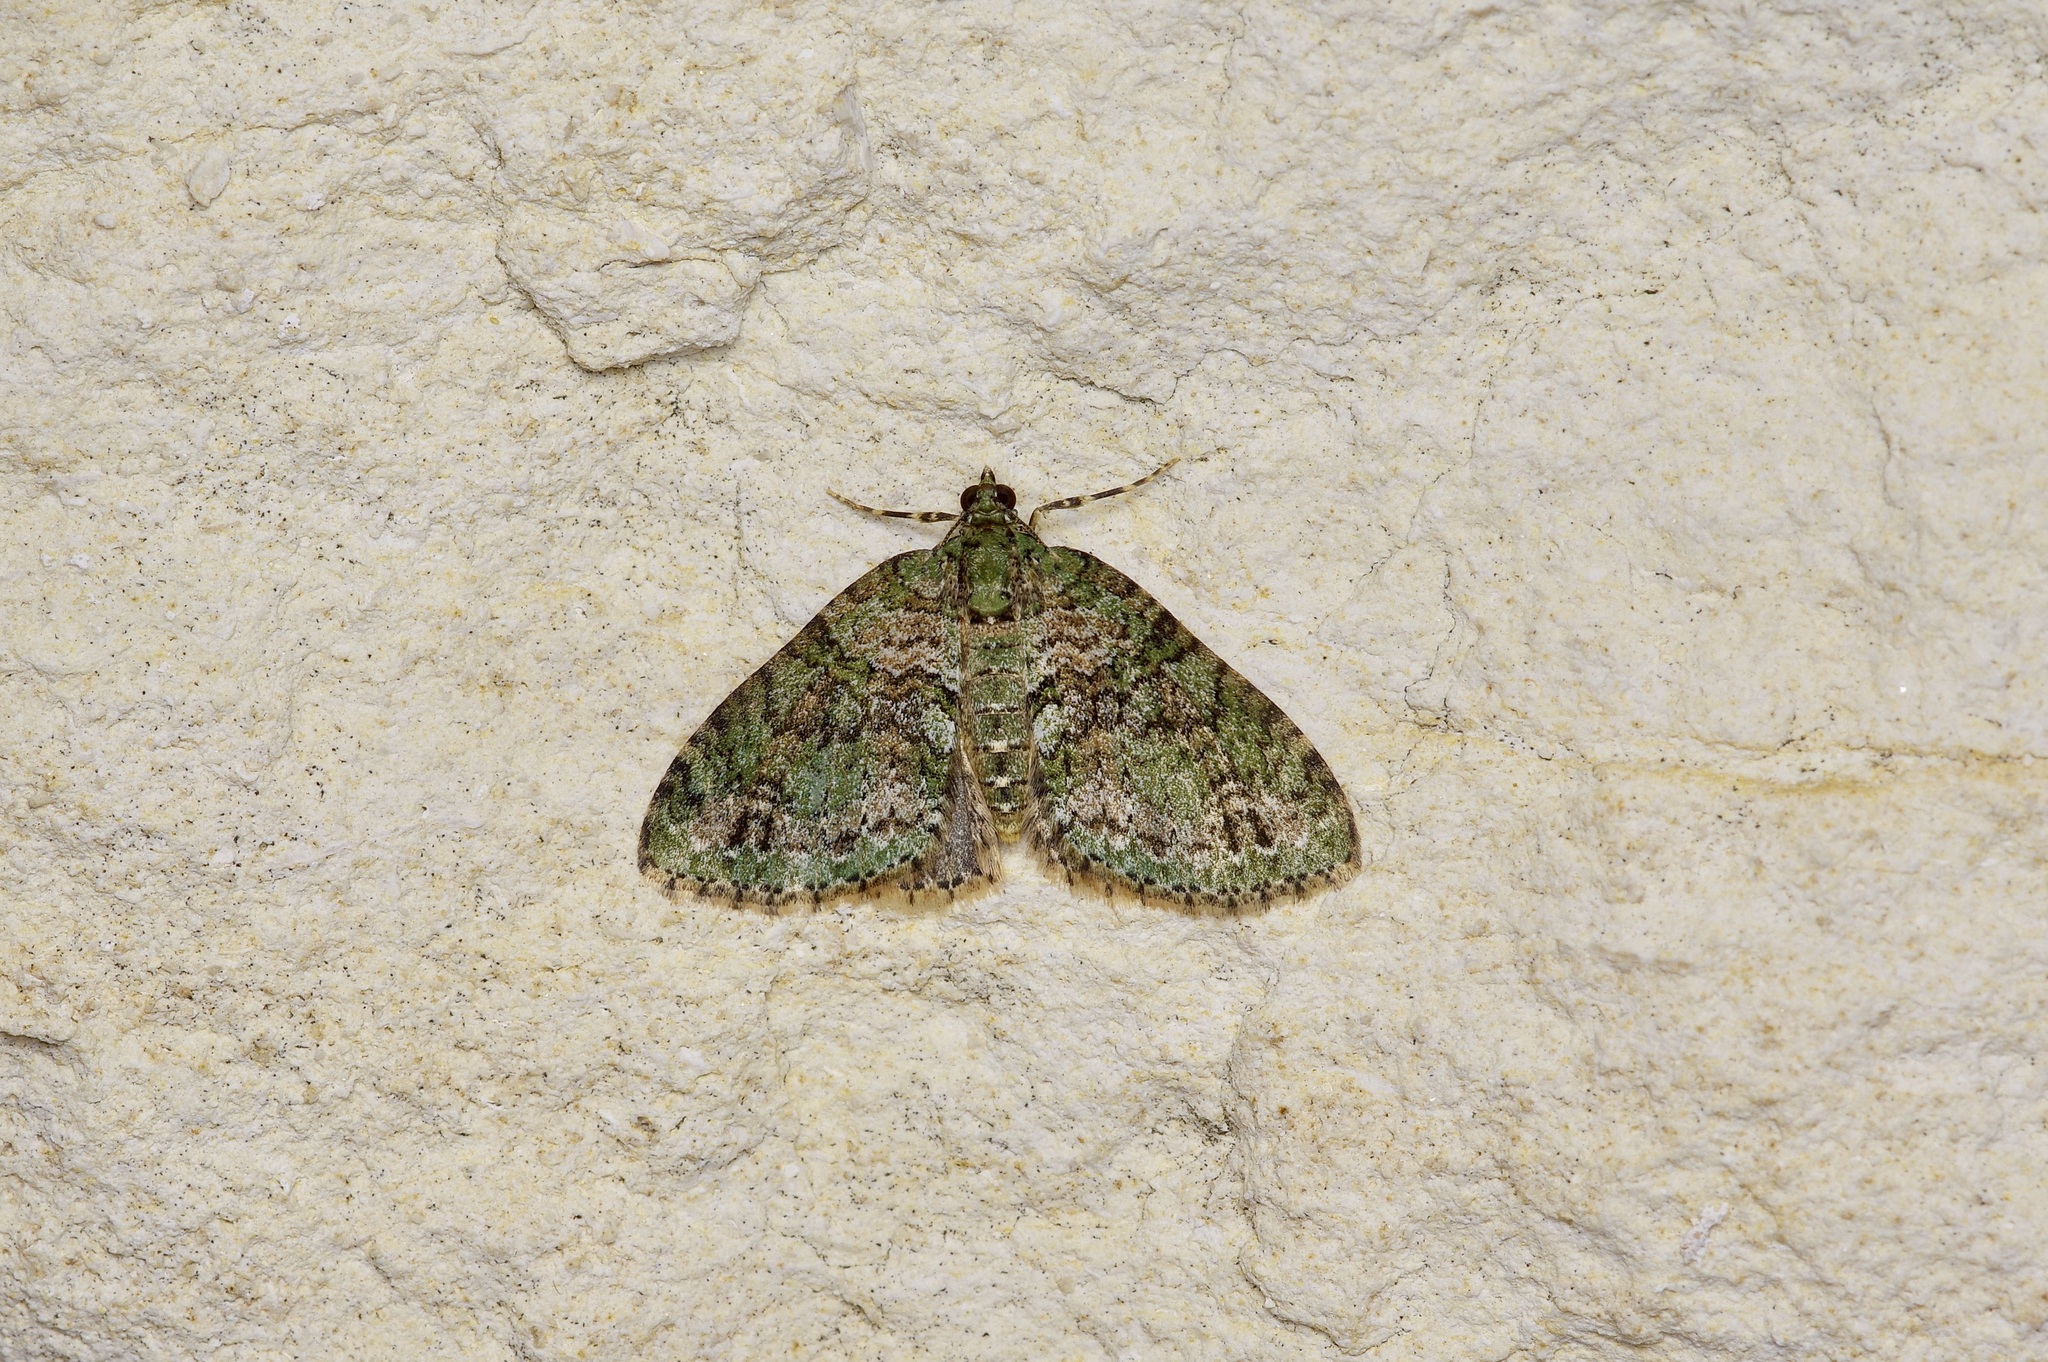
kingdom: Animalia
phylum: Arthropoda
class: Insecta
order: Lepidoptera
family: Geometridae
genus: Hammaptera
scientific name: Hammaptera parinotata
